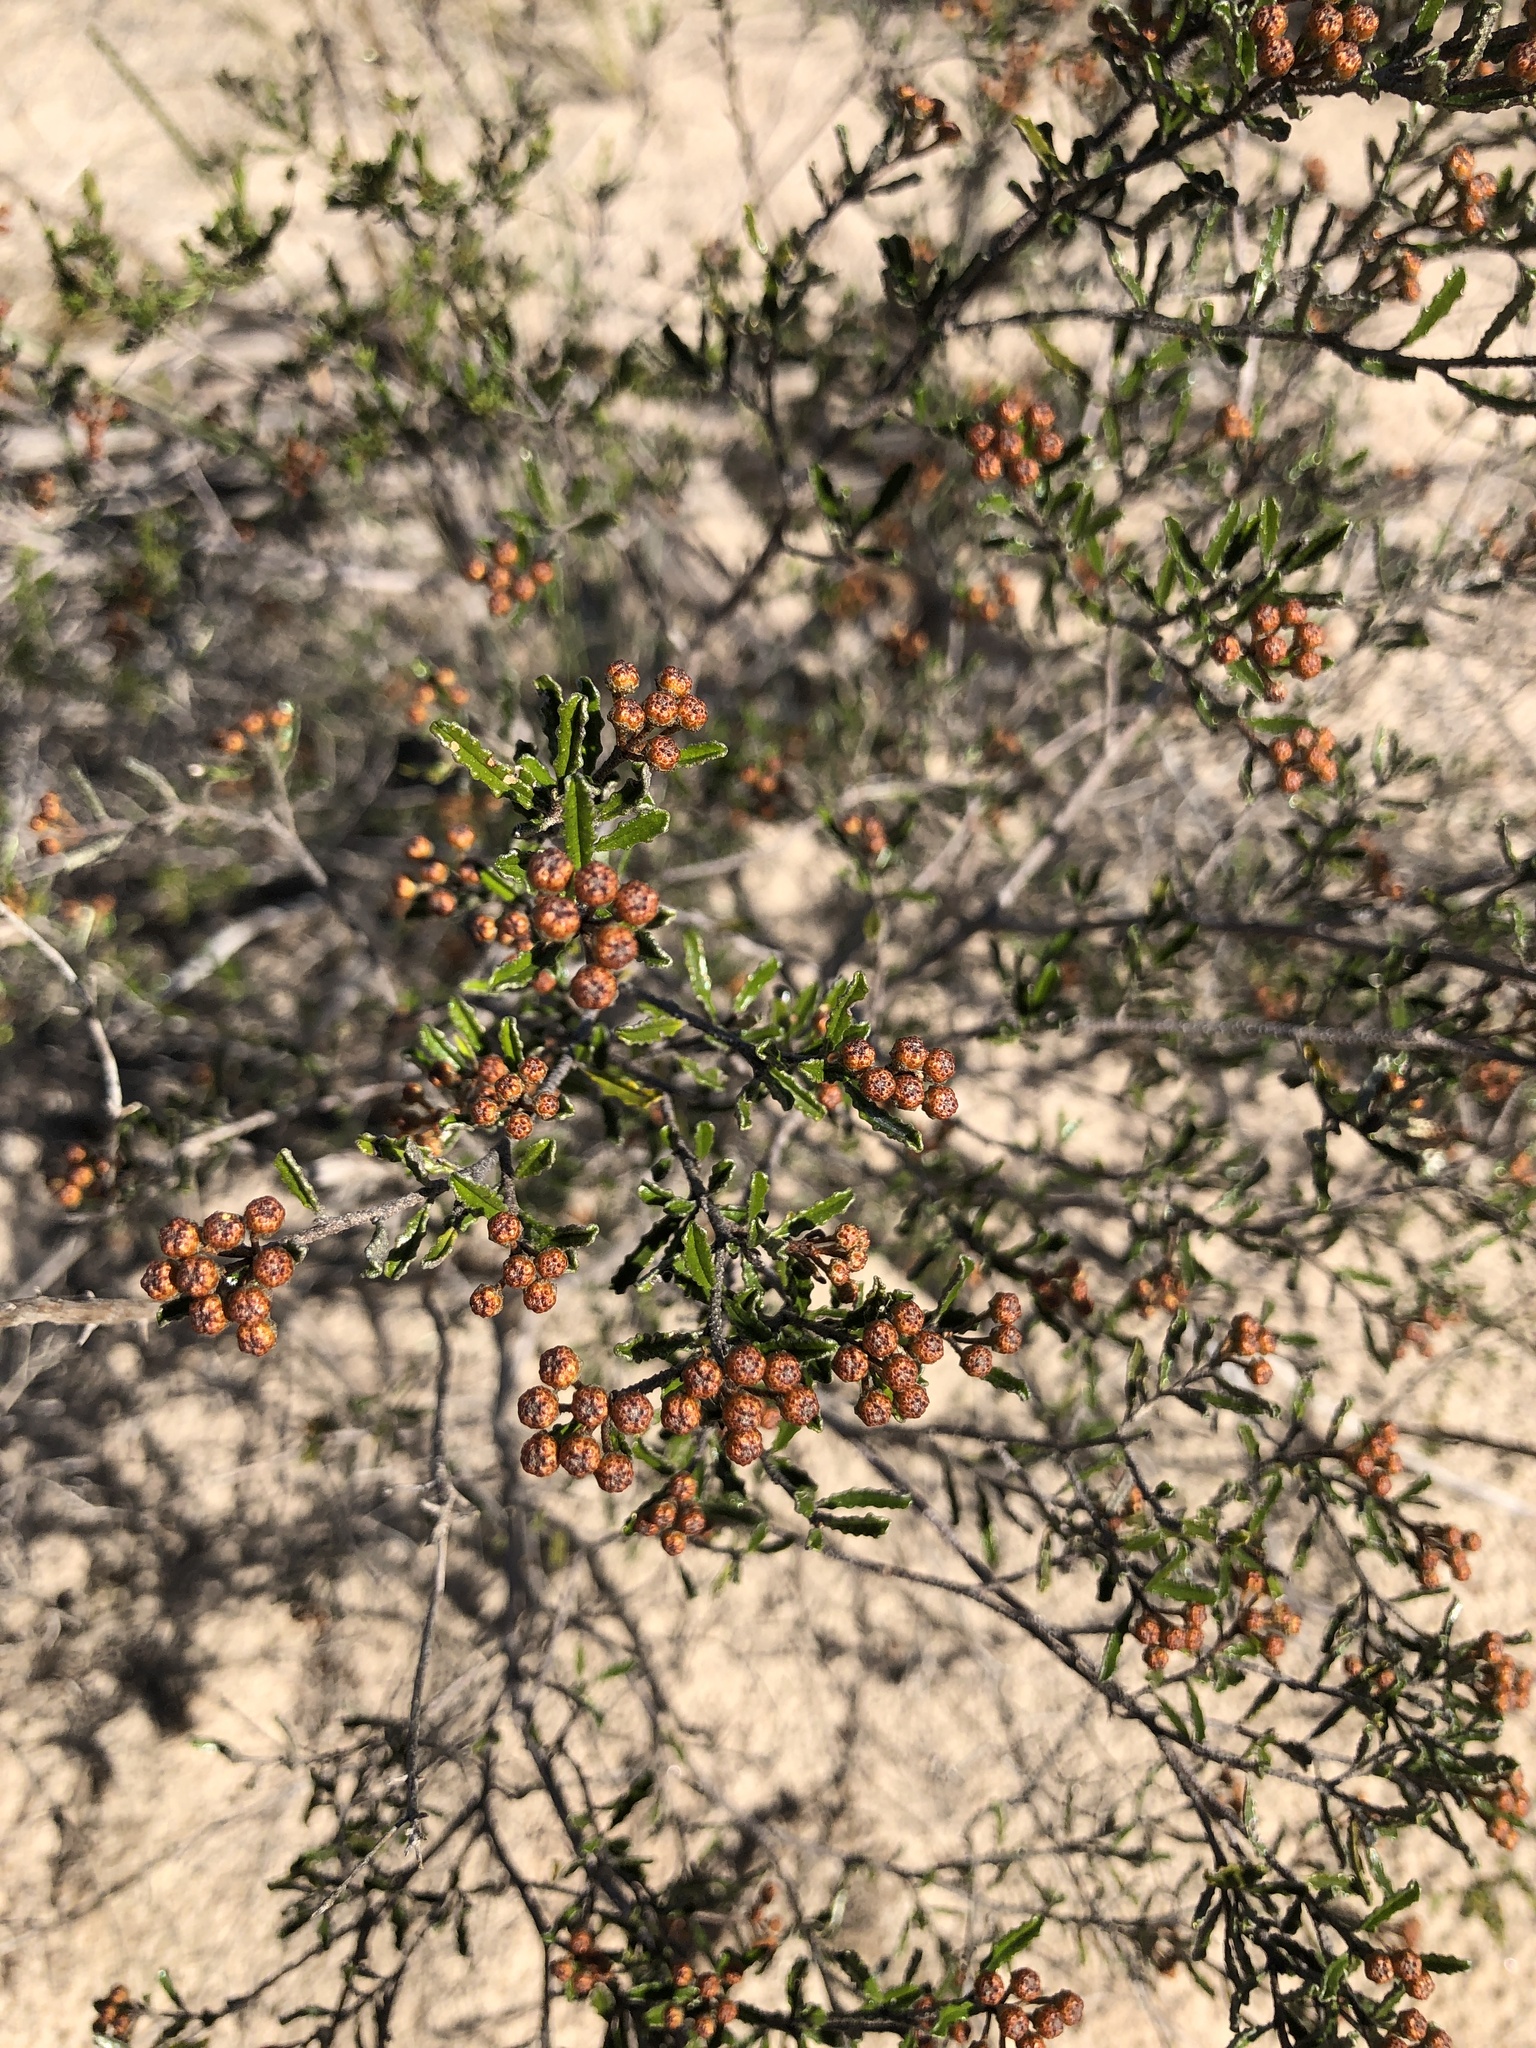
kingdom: Plantae
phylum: Tracheophyta
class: Magnoliopsida
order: Sapindales
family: Rutaceae
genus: Phebalium
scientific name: Phebalium bullatum
